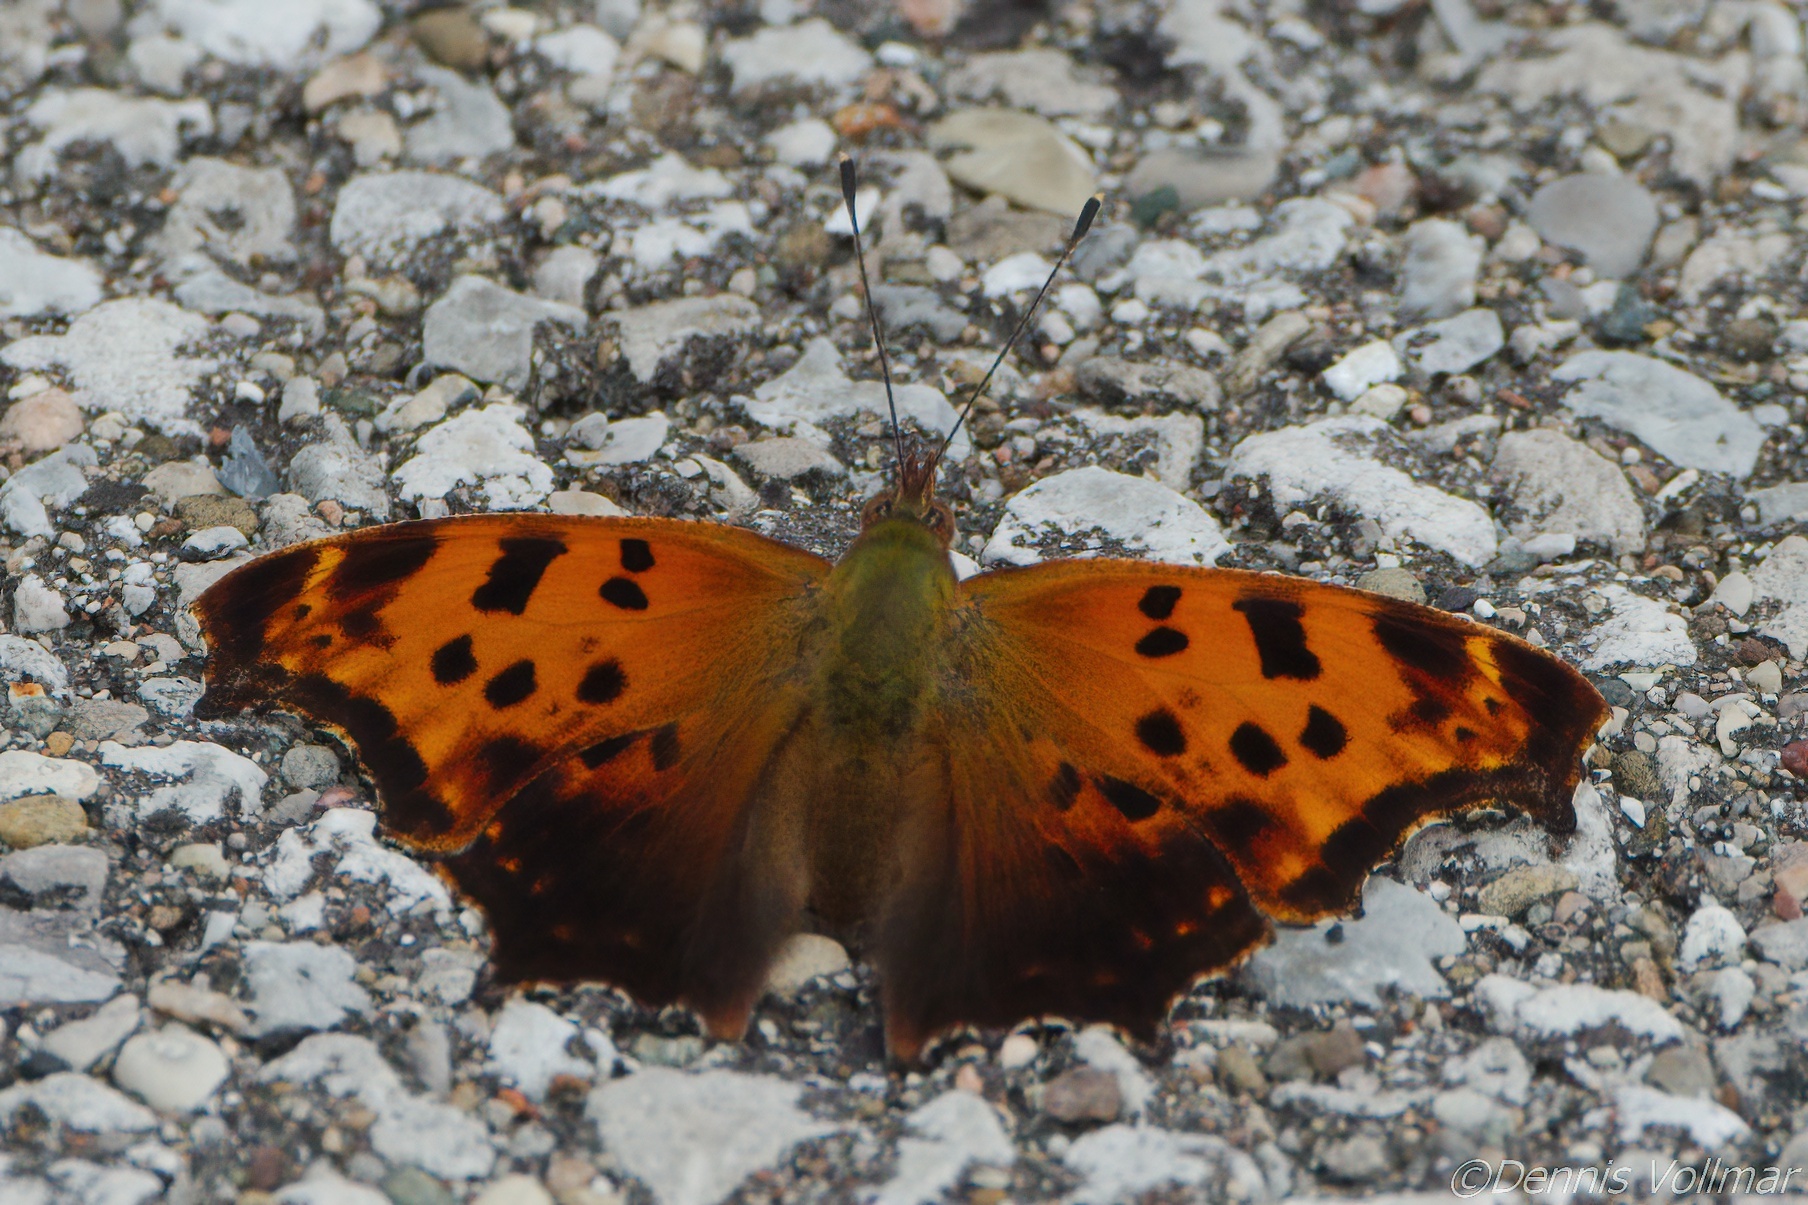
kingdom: Animalia
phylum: Arthropoda
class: Insecta
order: Lepidoptera
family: Nymphalidae
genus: Polygonia
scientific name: Polygonia comma
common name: Eastern comma
